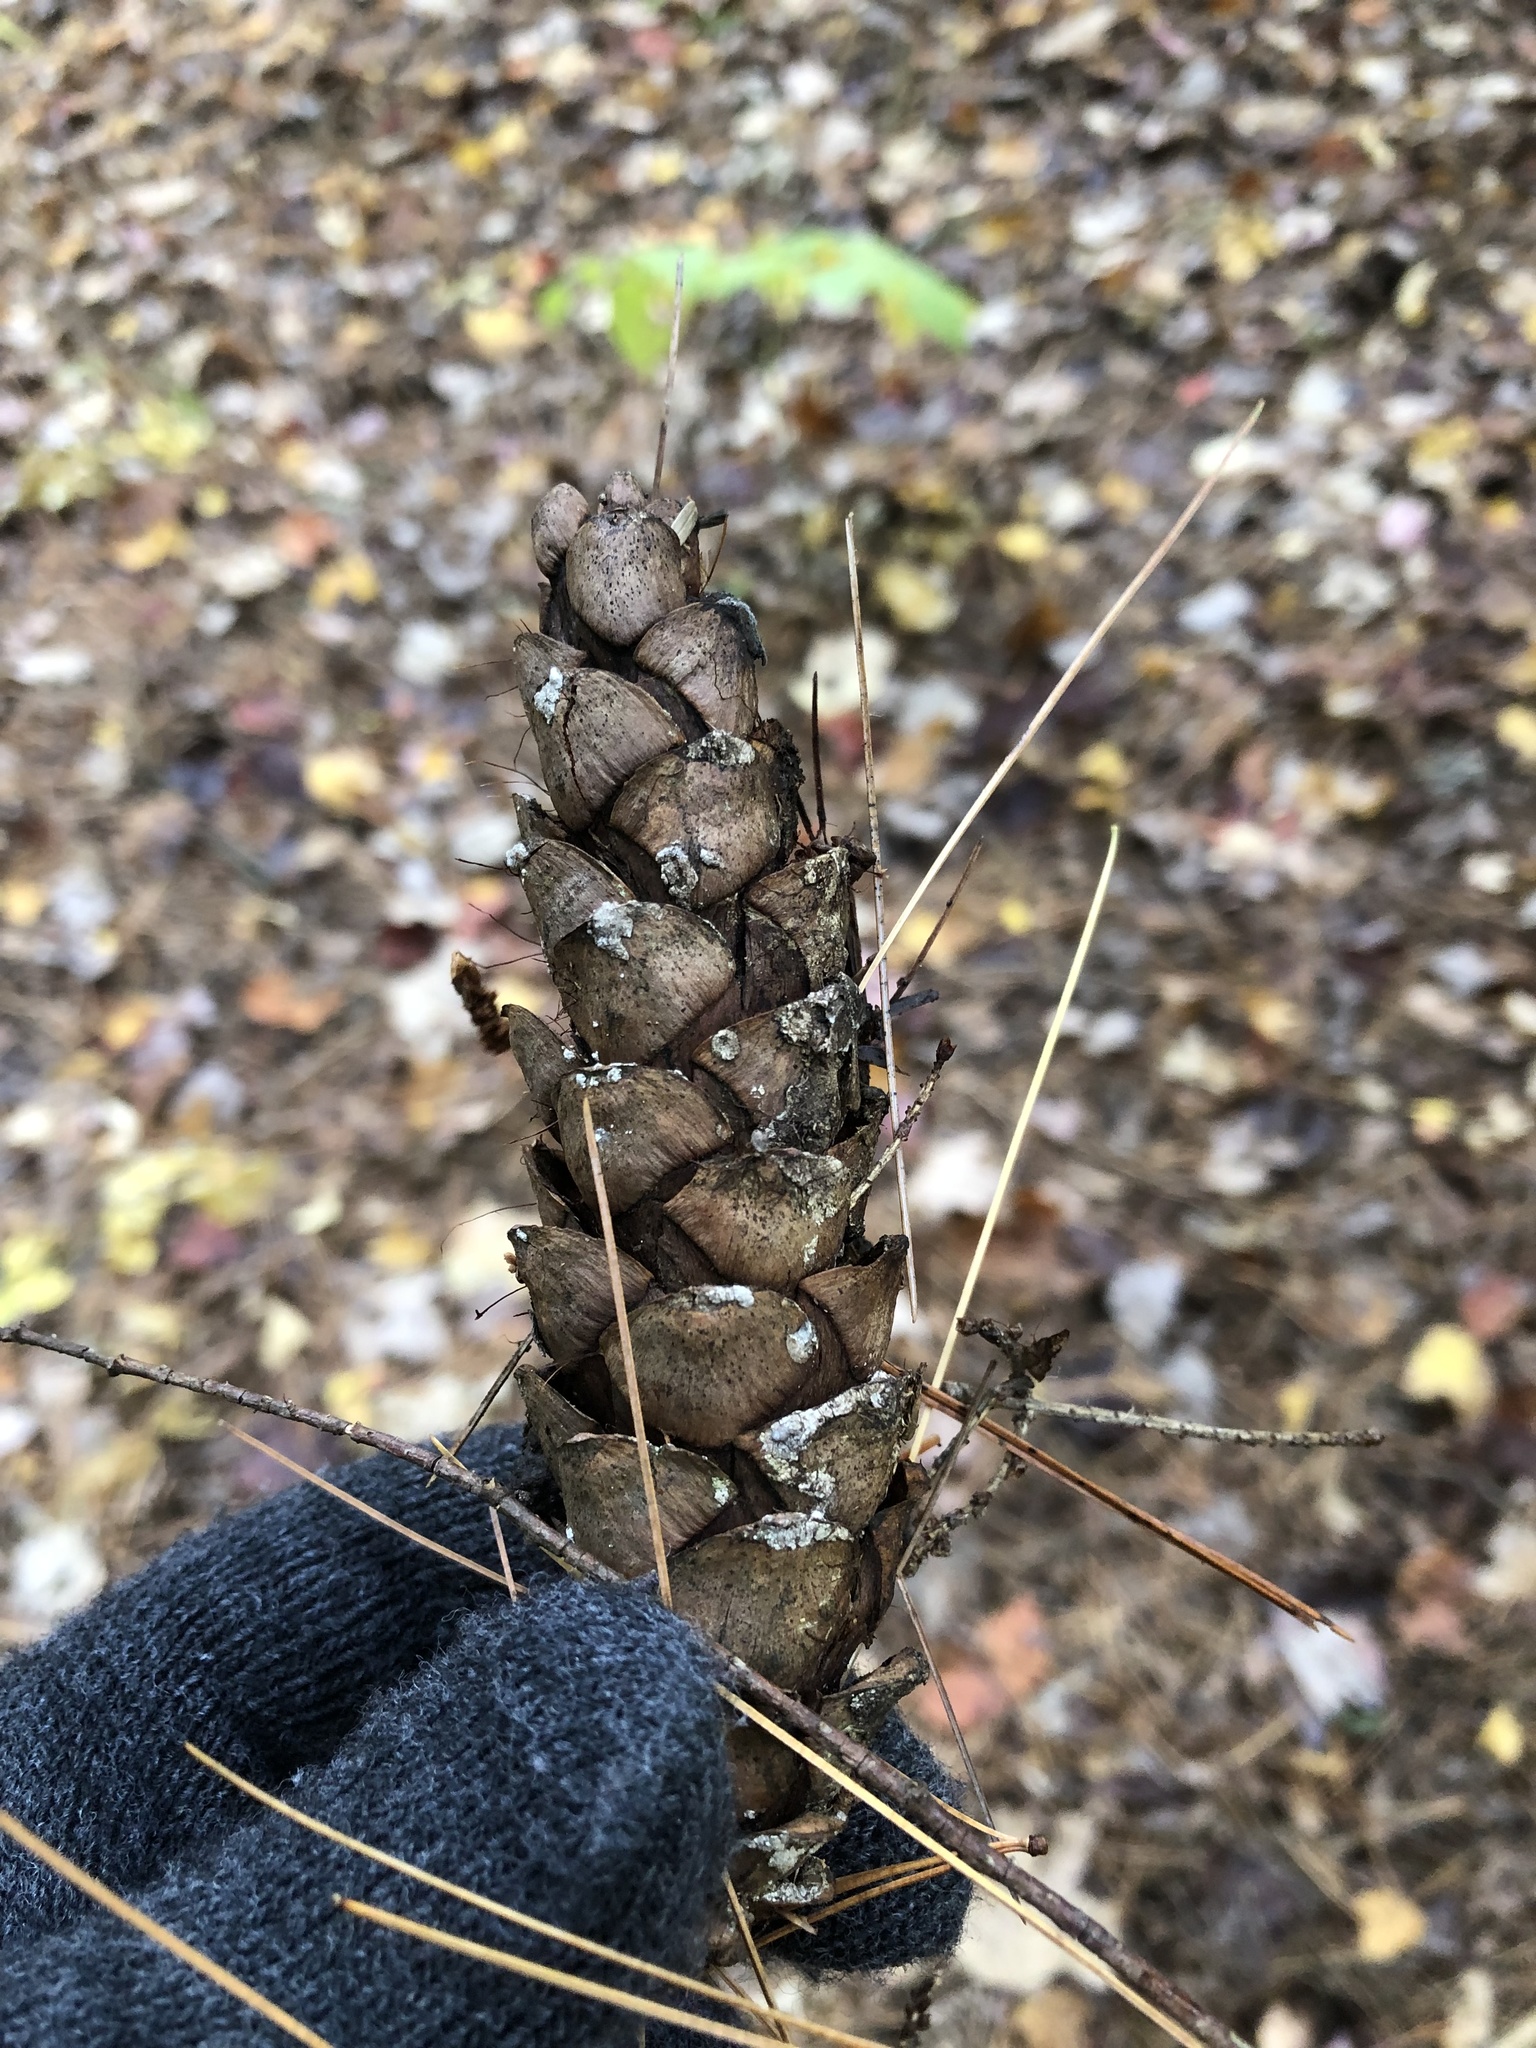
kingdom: Plantae
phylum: Tracheophyta
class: Pinopsida
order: Pinales
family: Pinaceae
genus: Pinus
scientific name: Pinus strobus
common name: Weymouth pine
